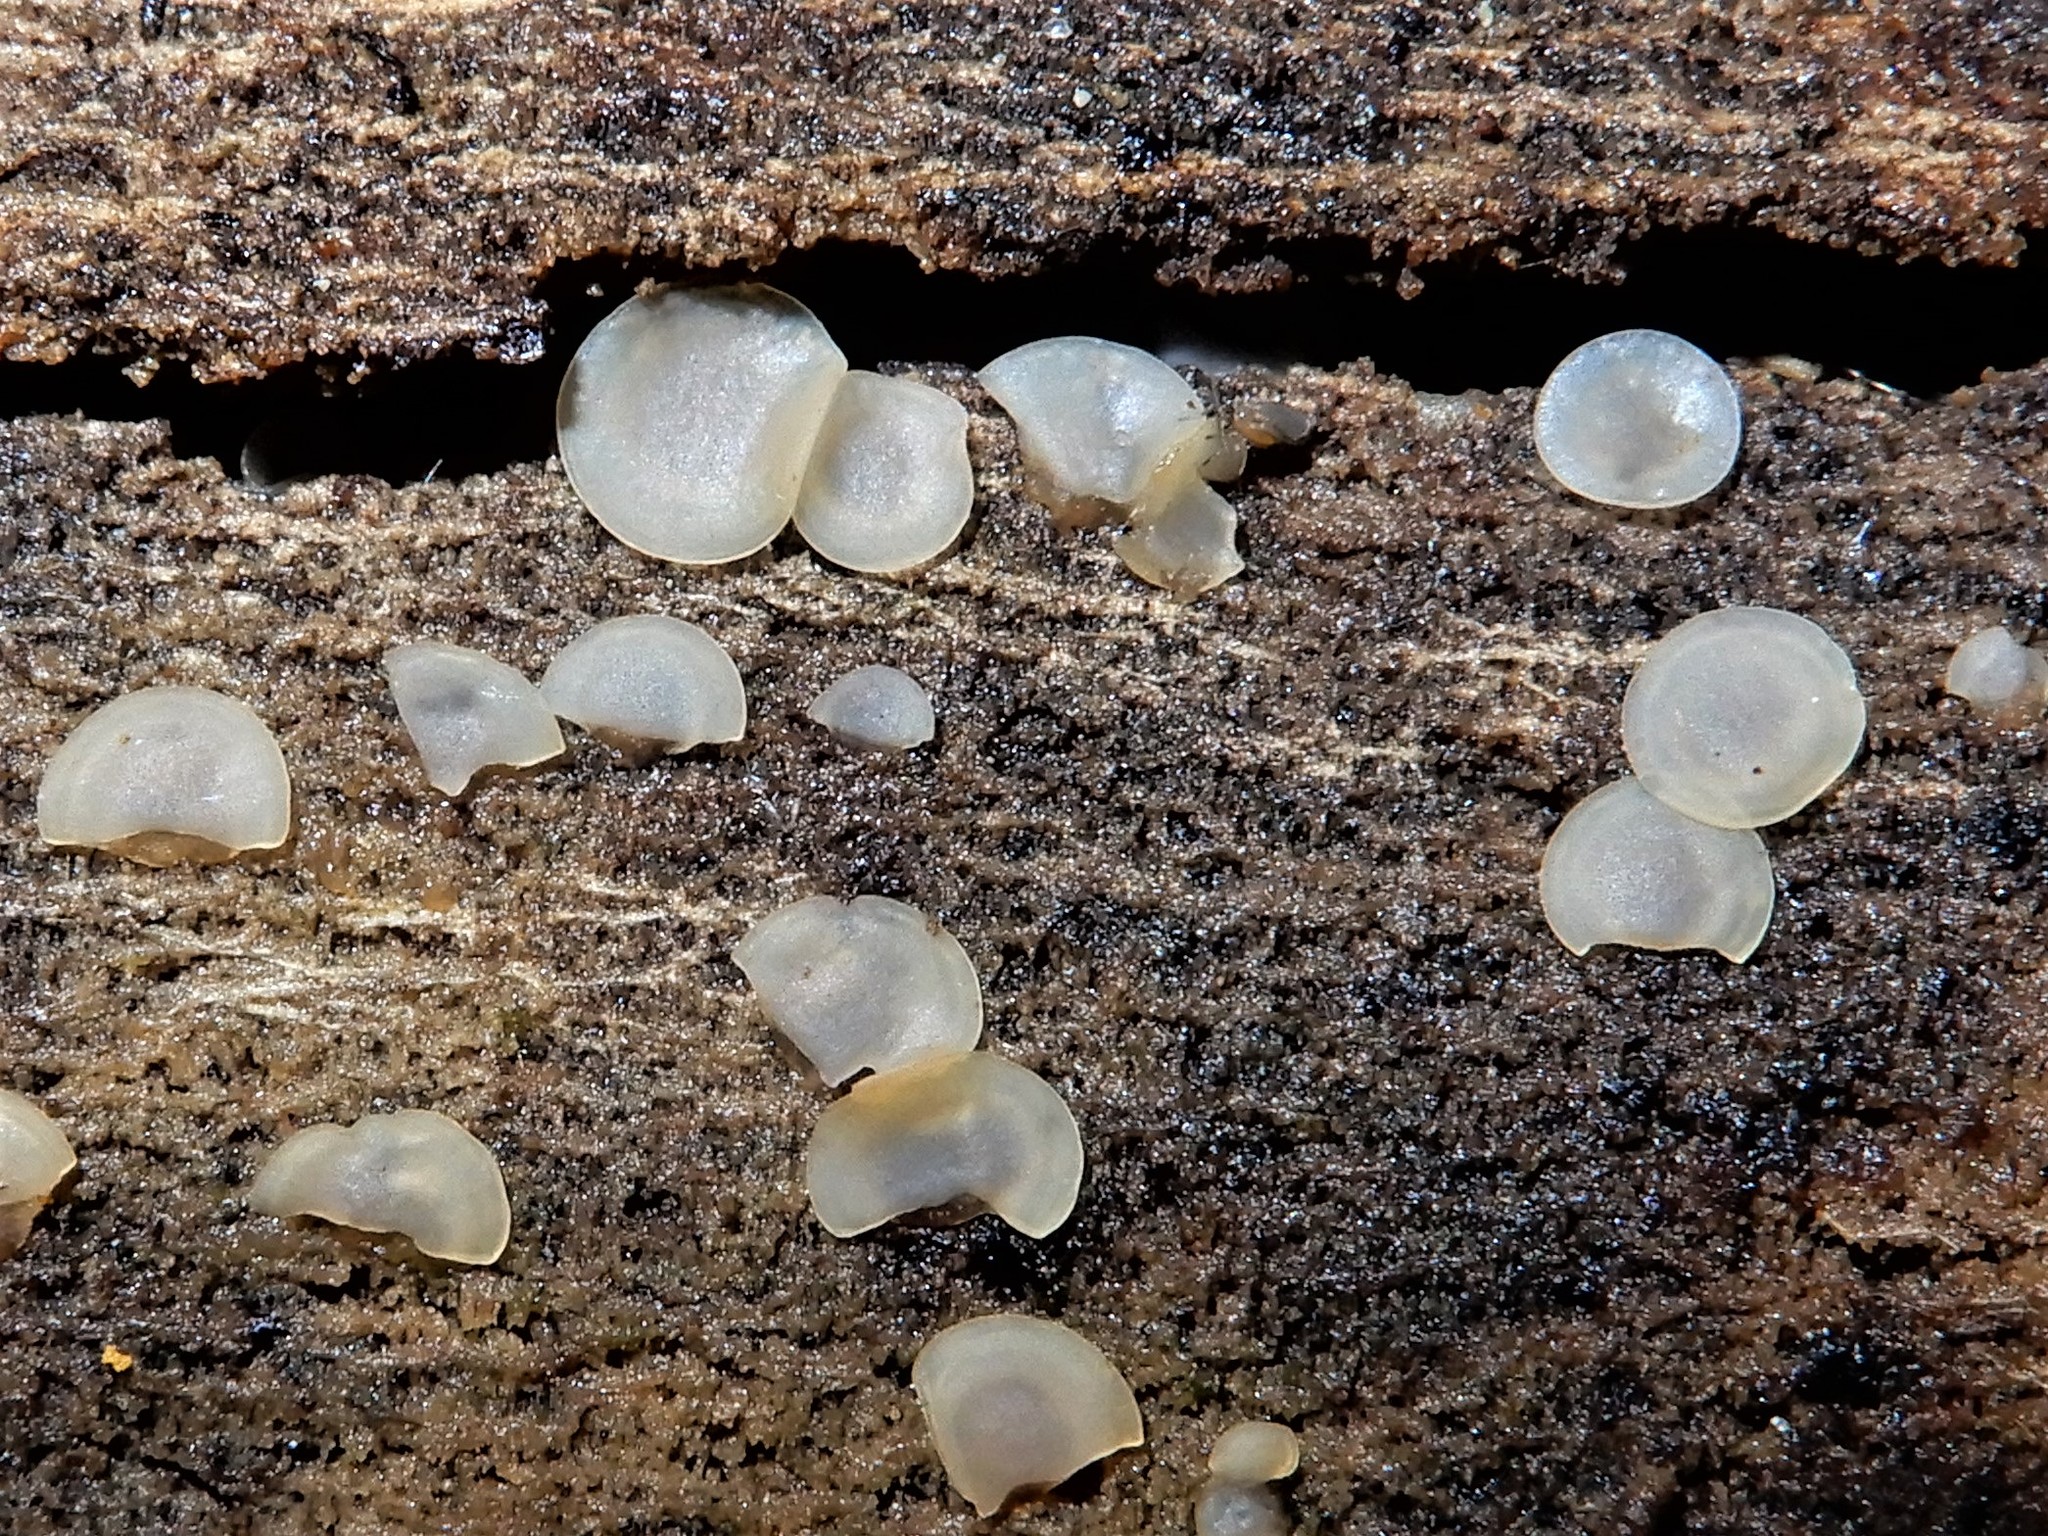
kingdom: Fungi
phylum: Ascomycota
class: Orbiliomycetes
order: Orbiliales
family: Orbiliaceae
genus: Orbilia
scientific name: Orbilia
